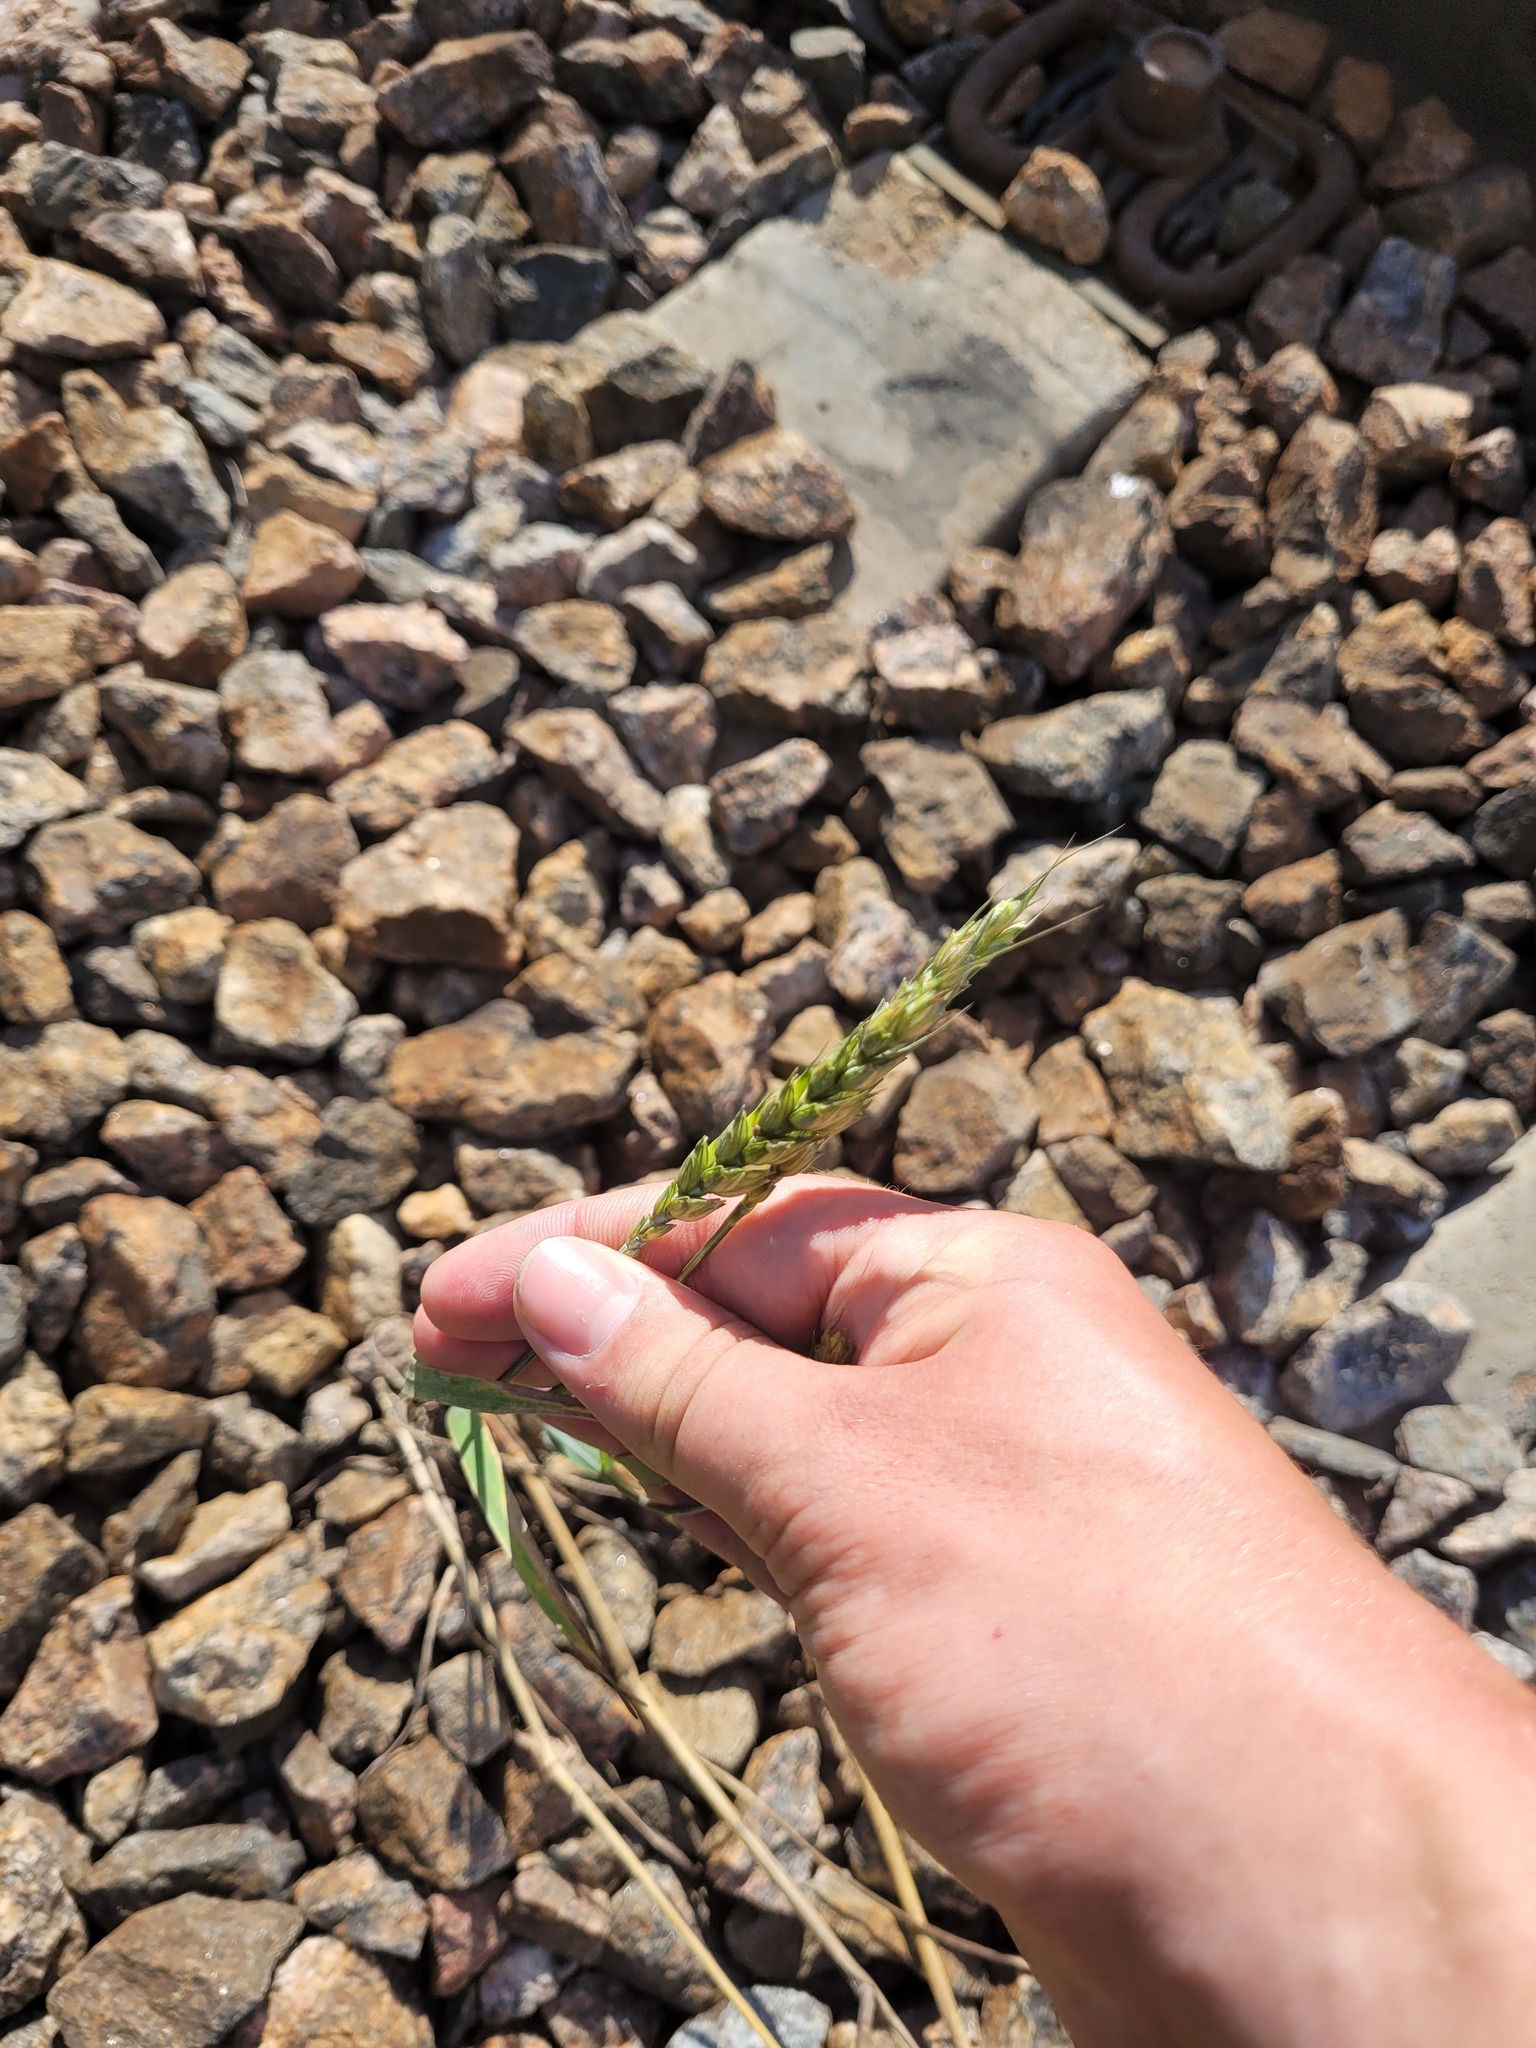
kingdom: Plantae
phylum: Tracheophyta
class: Liliopsida
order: Poales
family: Poaceae
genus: Triticum
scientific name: Triticum aestivum
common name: Common wheat
